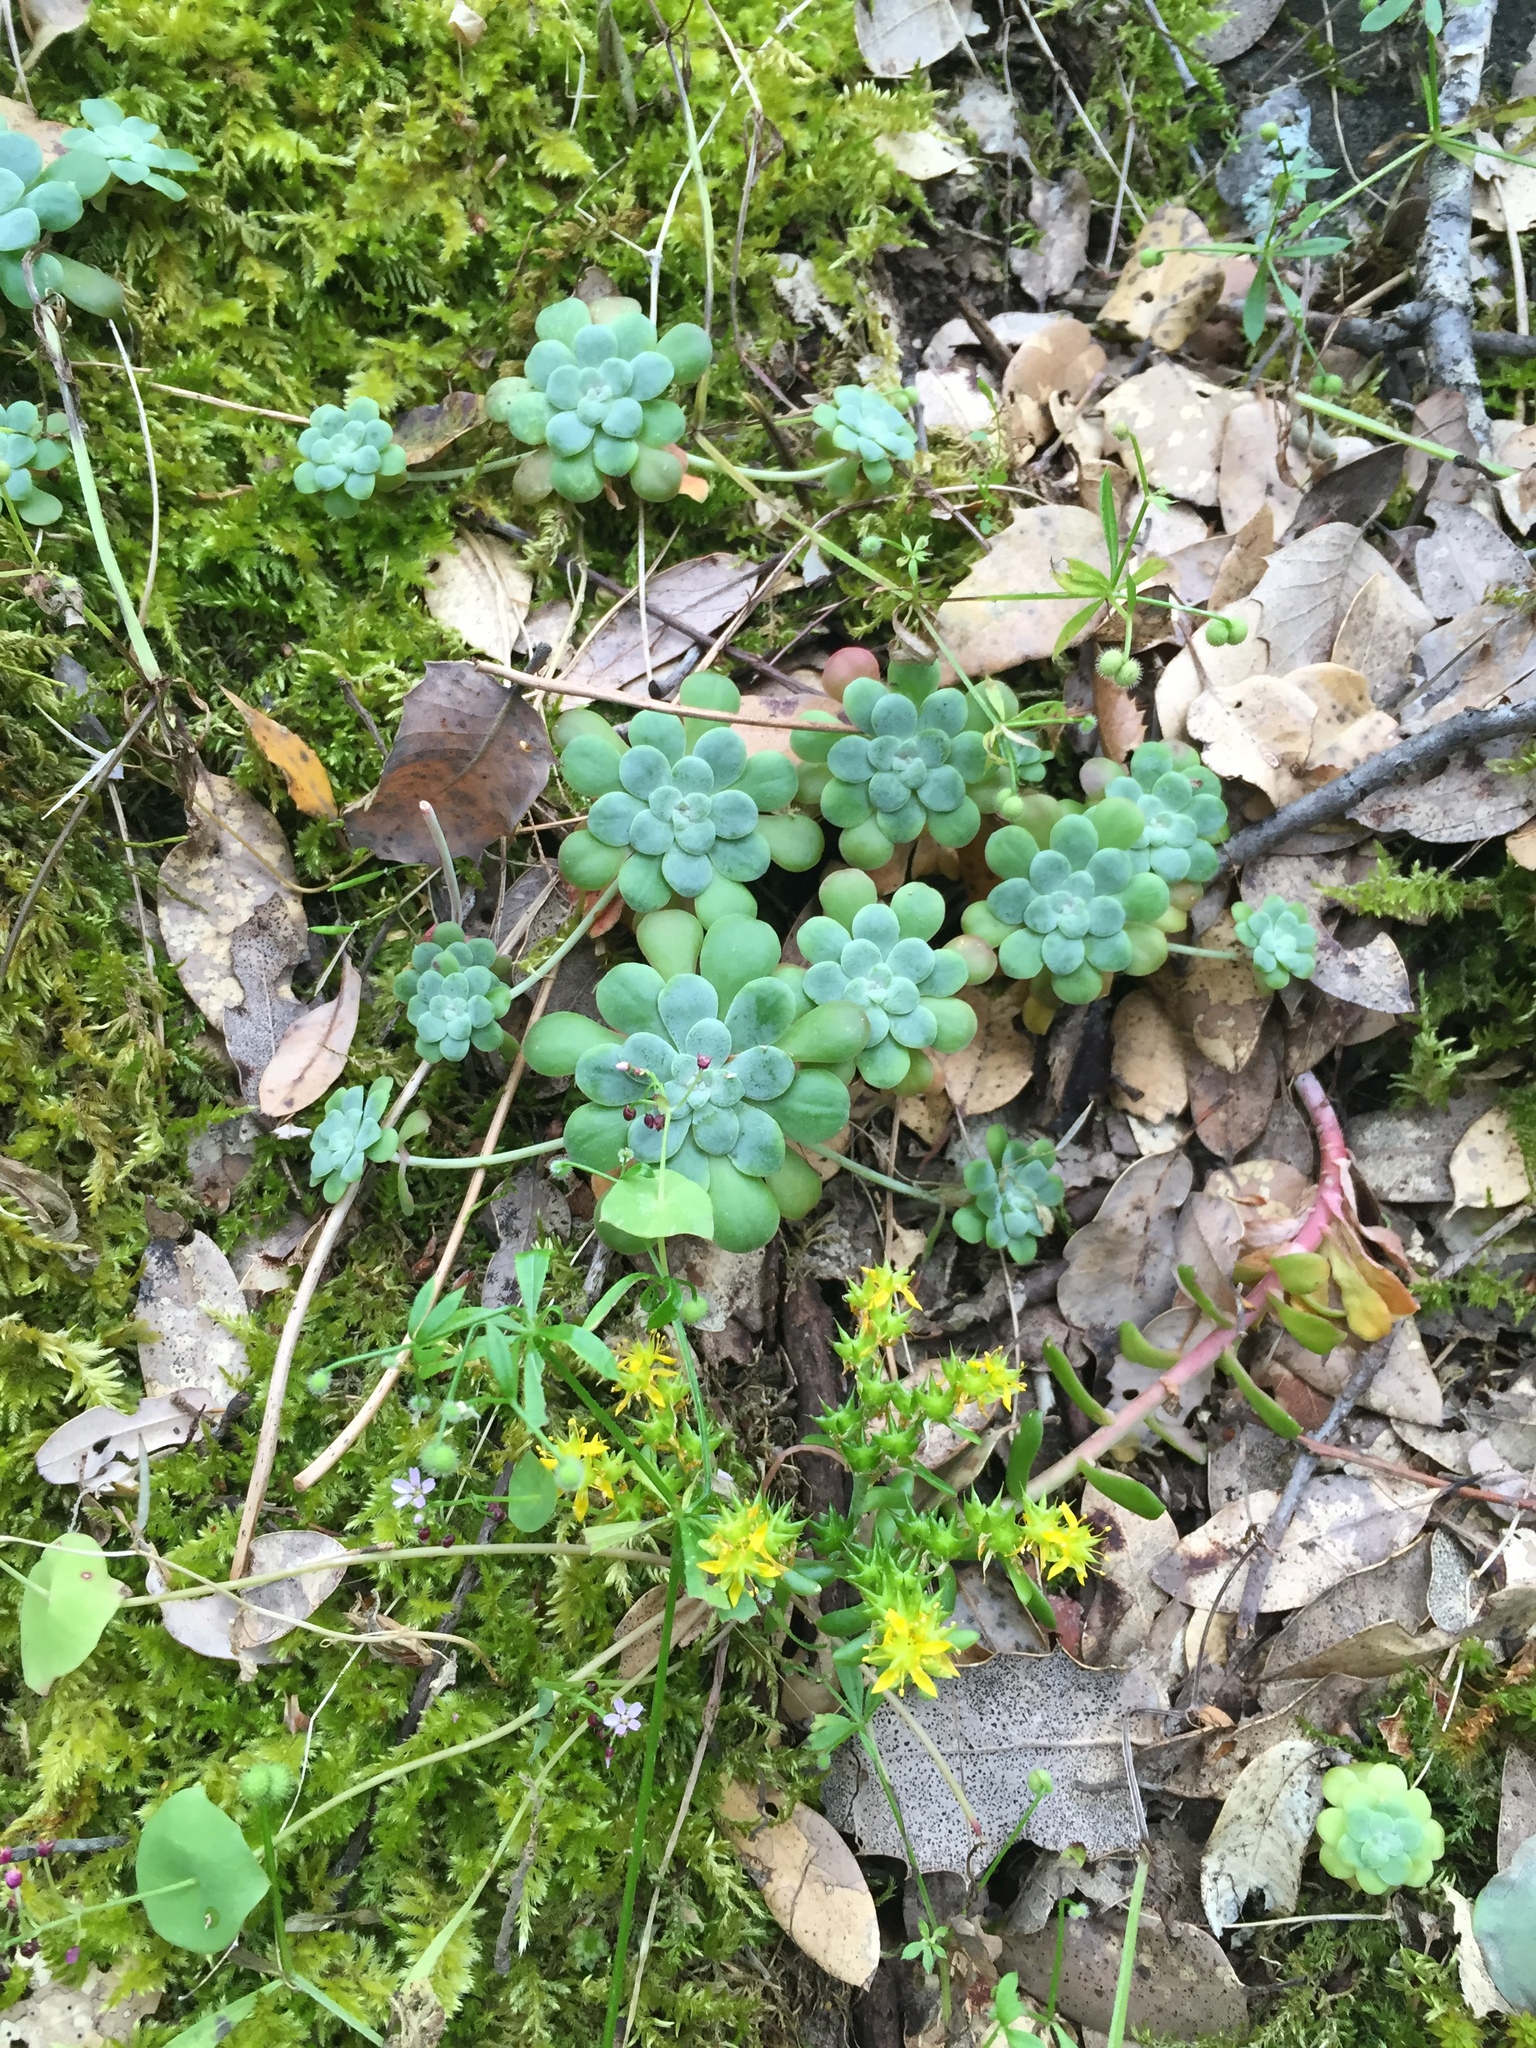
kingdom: Plantae
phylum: Tracheophyta
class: Magnoliopsida
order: Saxifragales
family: Crassulaceae
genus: Sedum
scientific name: Sedum spathulifolium
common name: Colorado stonecrop
